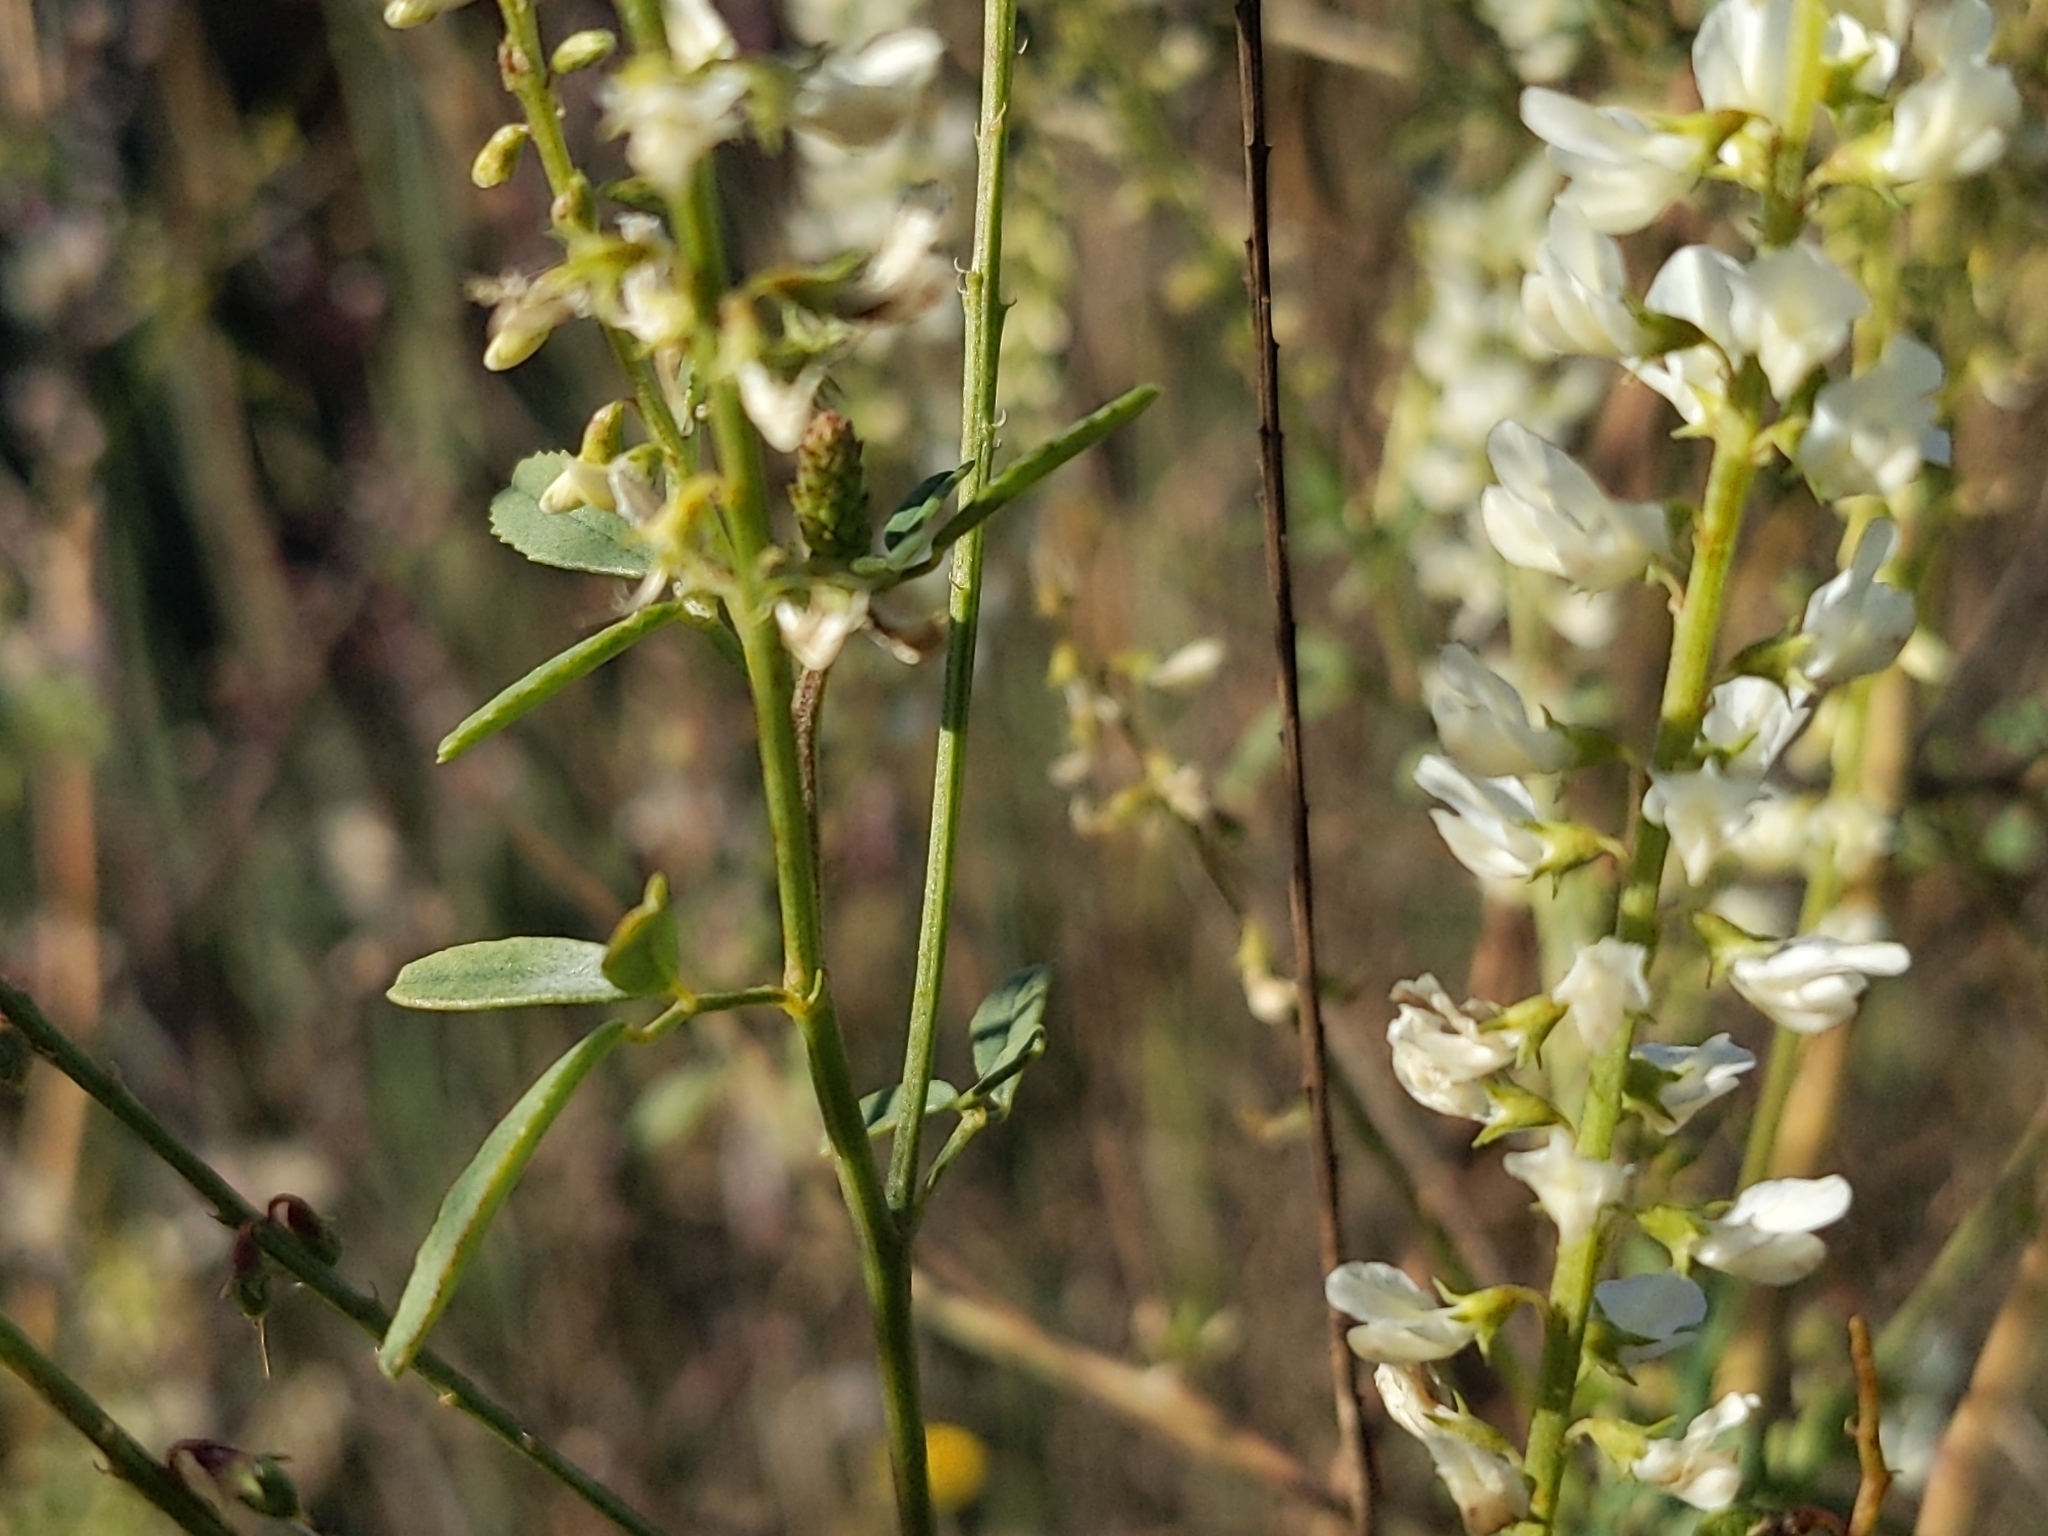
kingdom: Plantae
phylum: Tracheophyta
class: Magnoliopsida
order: Fabales
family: Fabaceae
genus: Melilotus
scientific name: Melilotus albus
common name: White melilot
